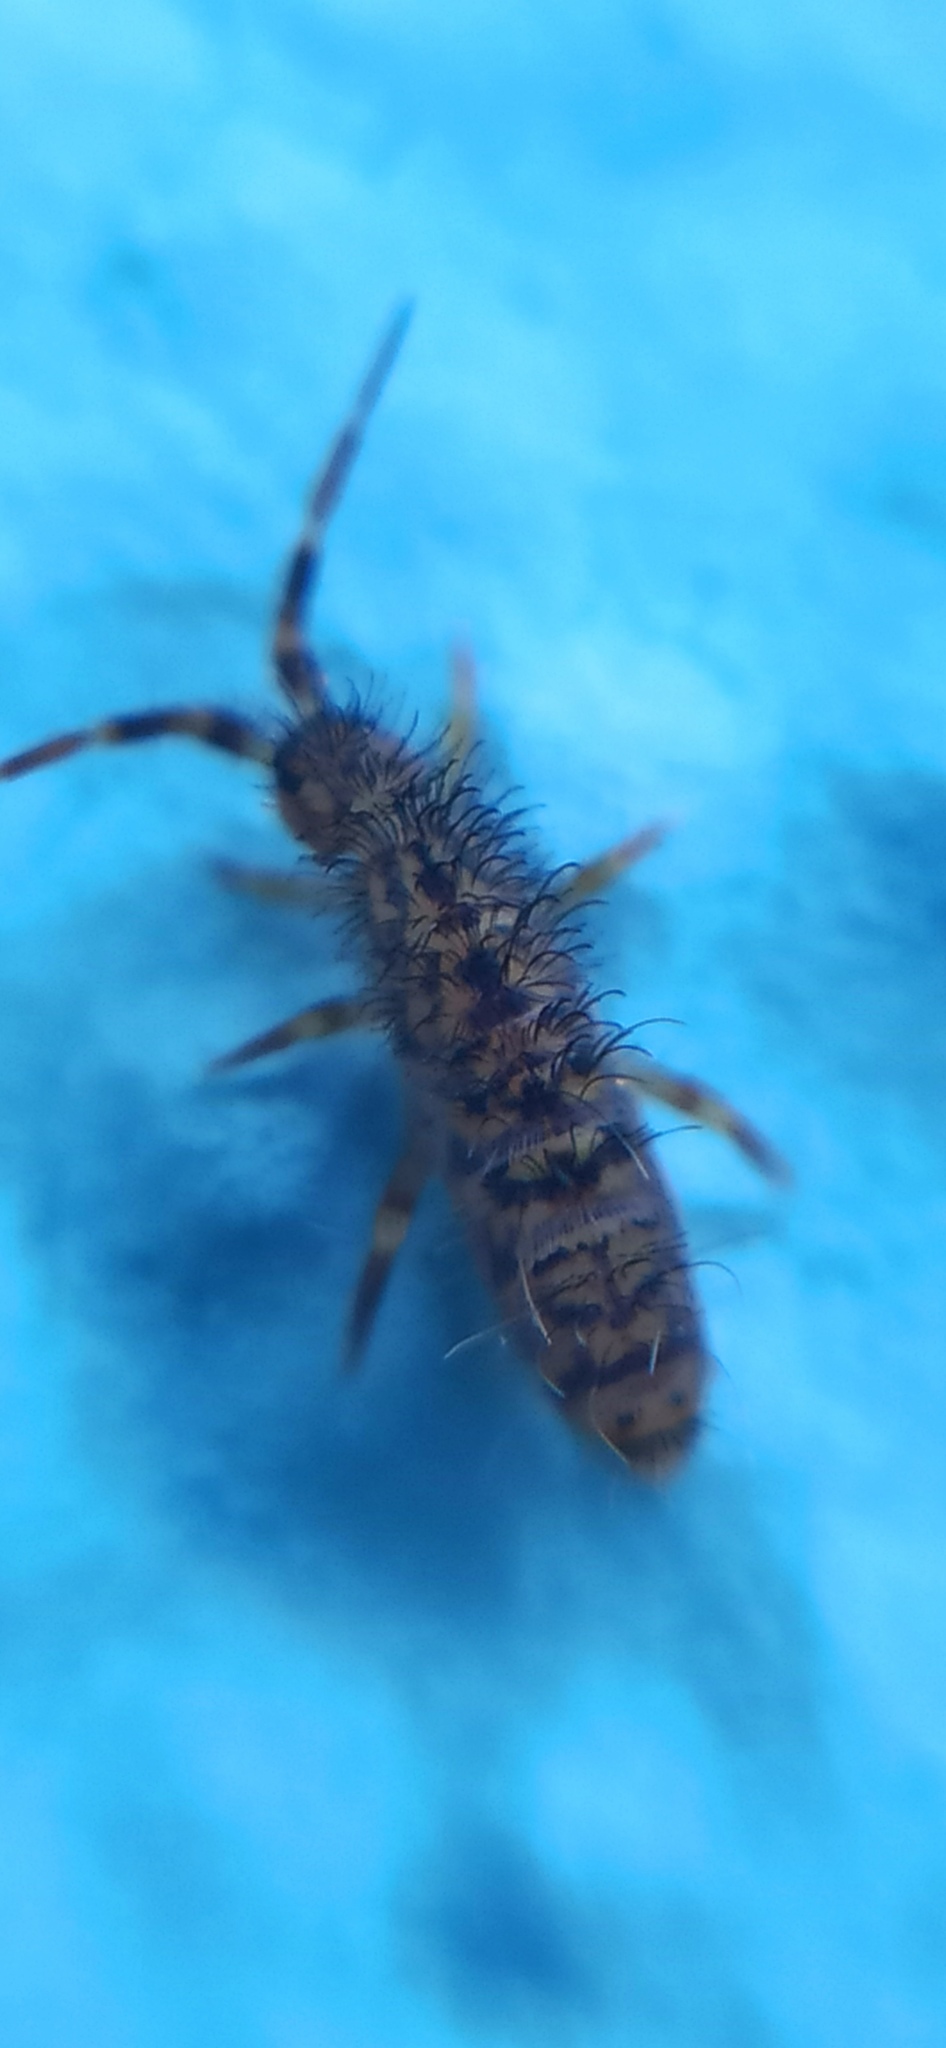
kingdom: Animalia
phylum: Arthropoda
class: Collembola
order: Entomobryomorpha
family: Orchesellidae
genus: Orchesella
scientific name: Orchesella villosa
